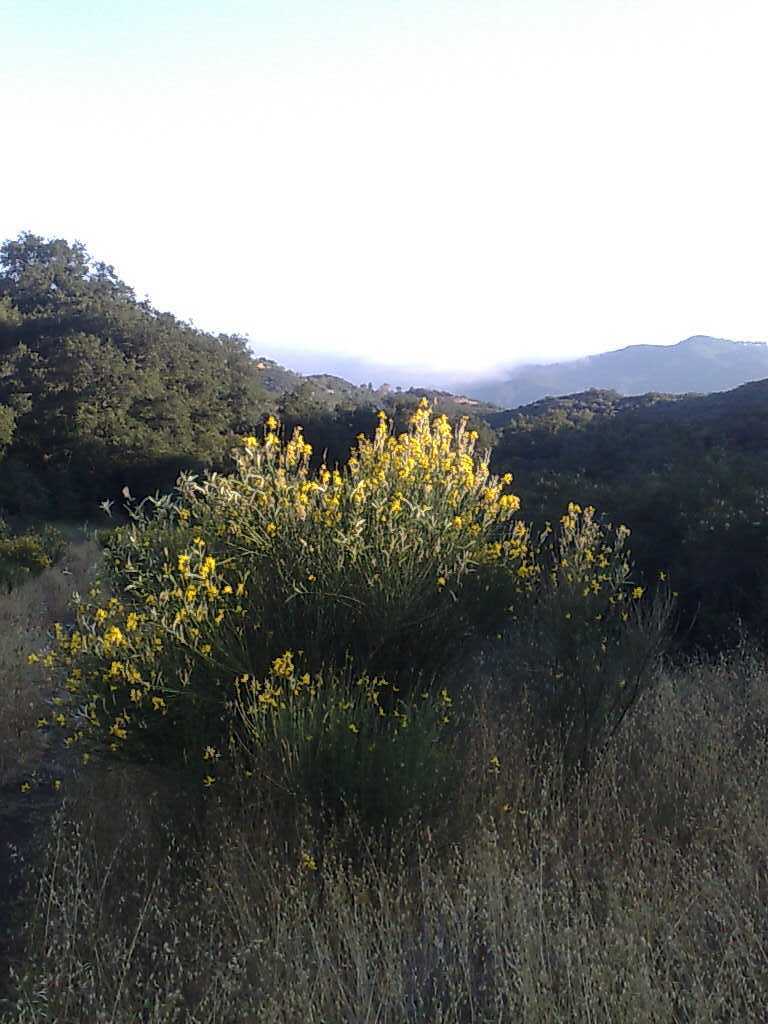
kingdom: Plantae
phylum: Tracheophyta
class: Magnoliopsida
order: Fabales
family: Fabaceae
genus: Spartium
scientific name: Spartium junceum
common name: Spanish broom
